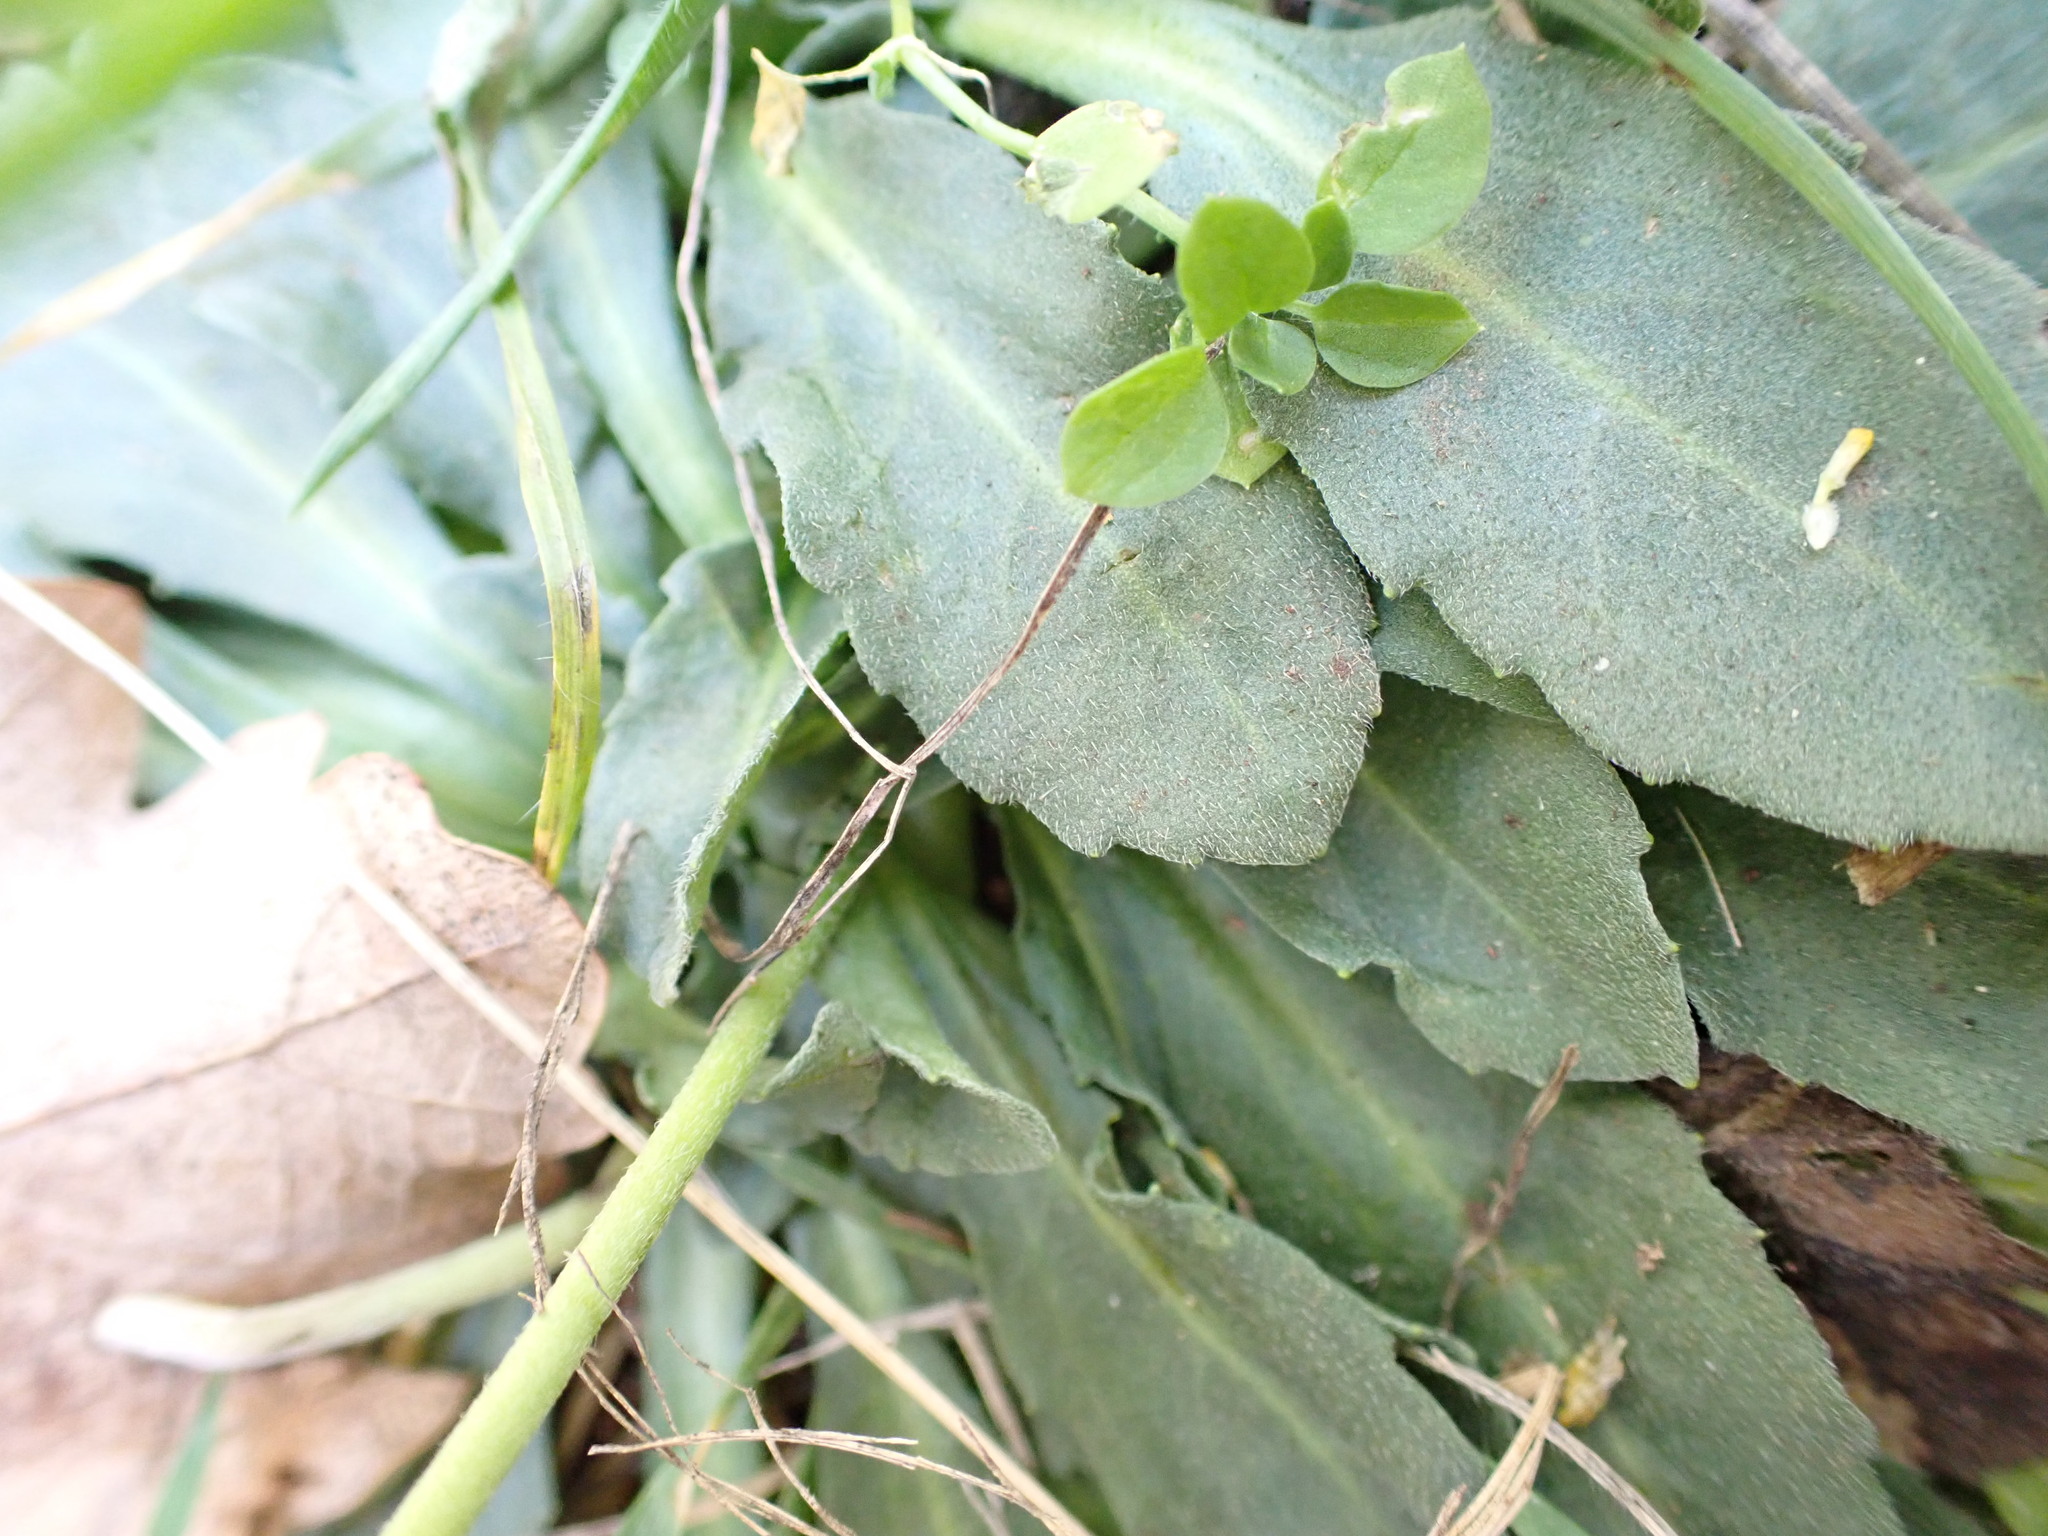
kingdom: Plantae
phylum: Tracheophyta
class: Magnoliopsida
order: Asterales
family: Asteraceae
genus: Bellis
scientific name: Bellis sylvestris
